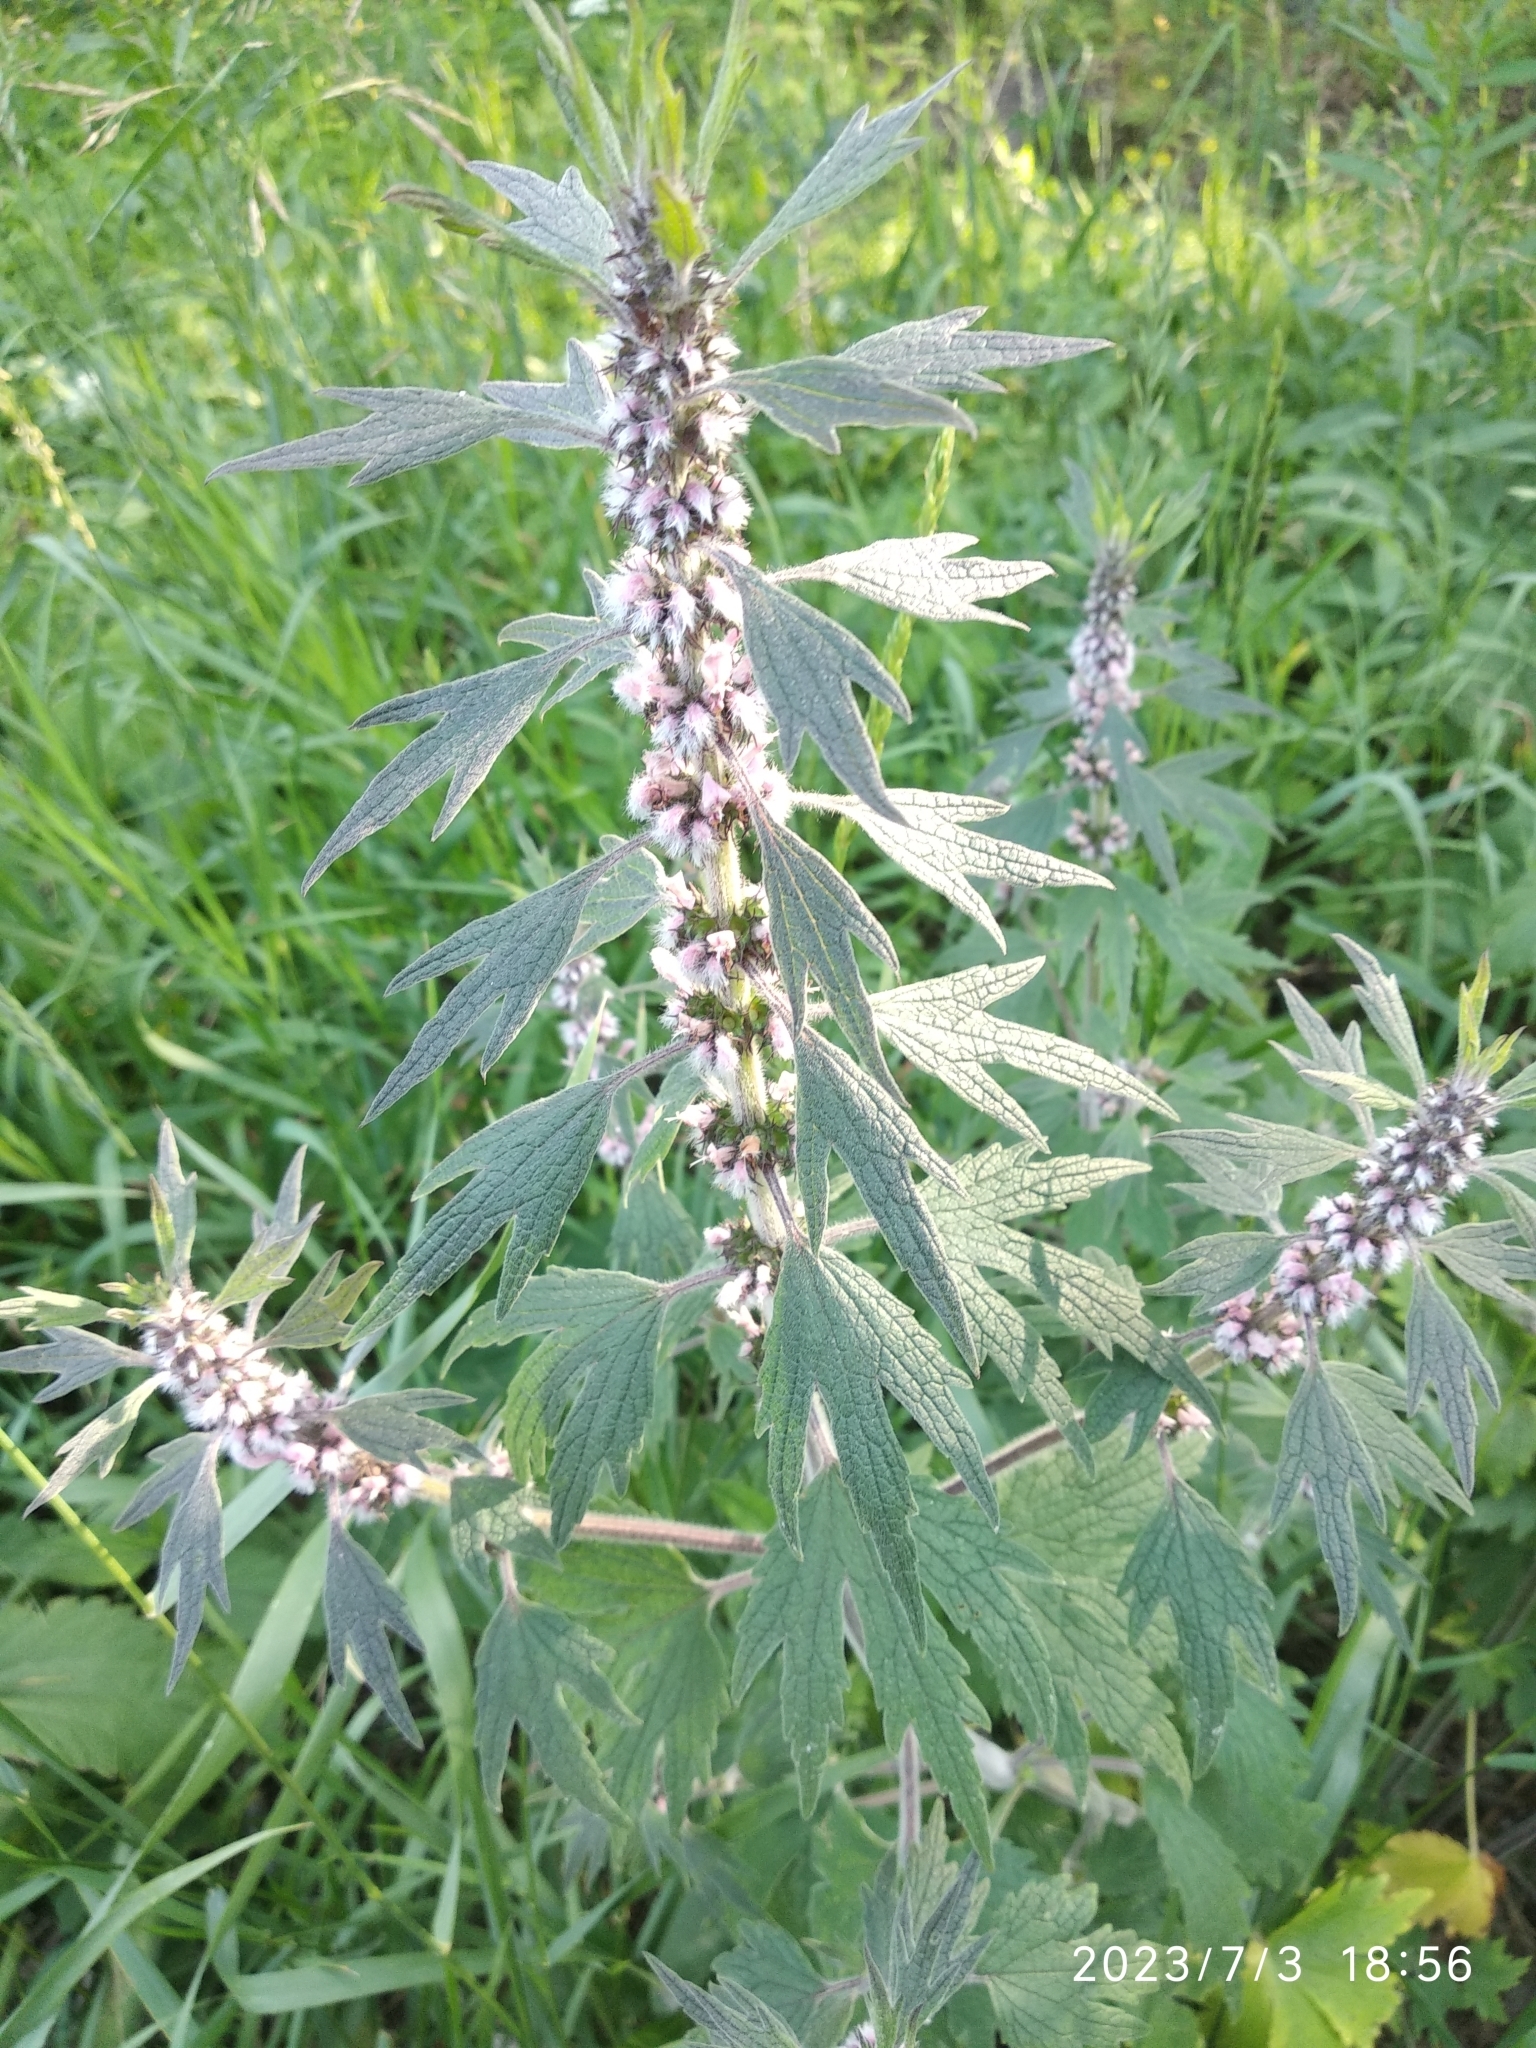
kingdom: Plantae
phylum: Tracheophyta
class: Magnoliopsida
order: Lamiales
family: Lamiaceae
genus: Leonurus
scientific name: Leonurus quinquelobatus
